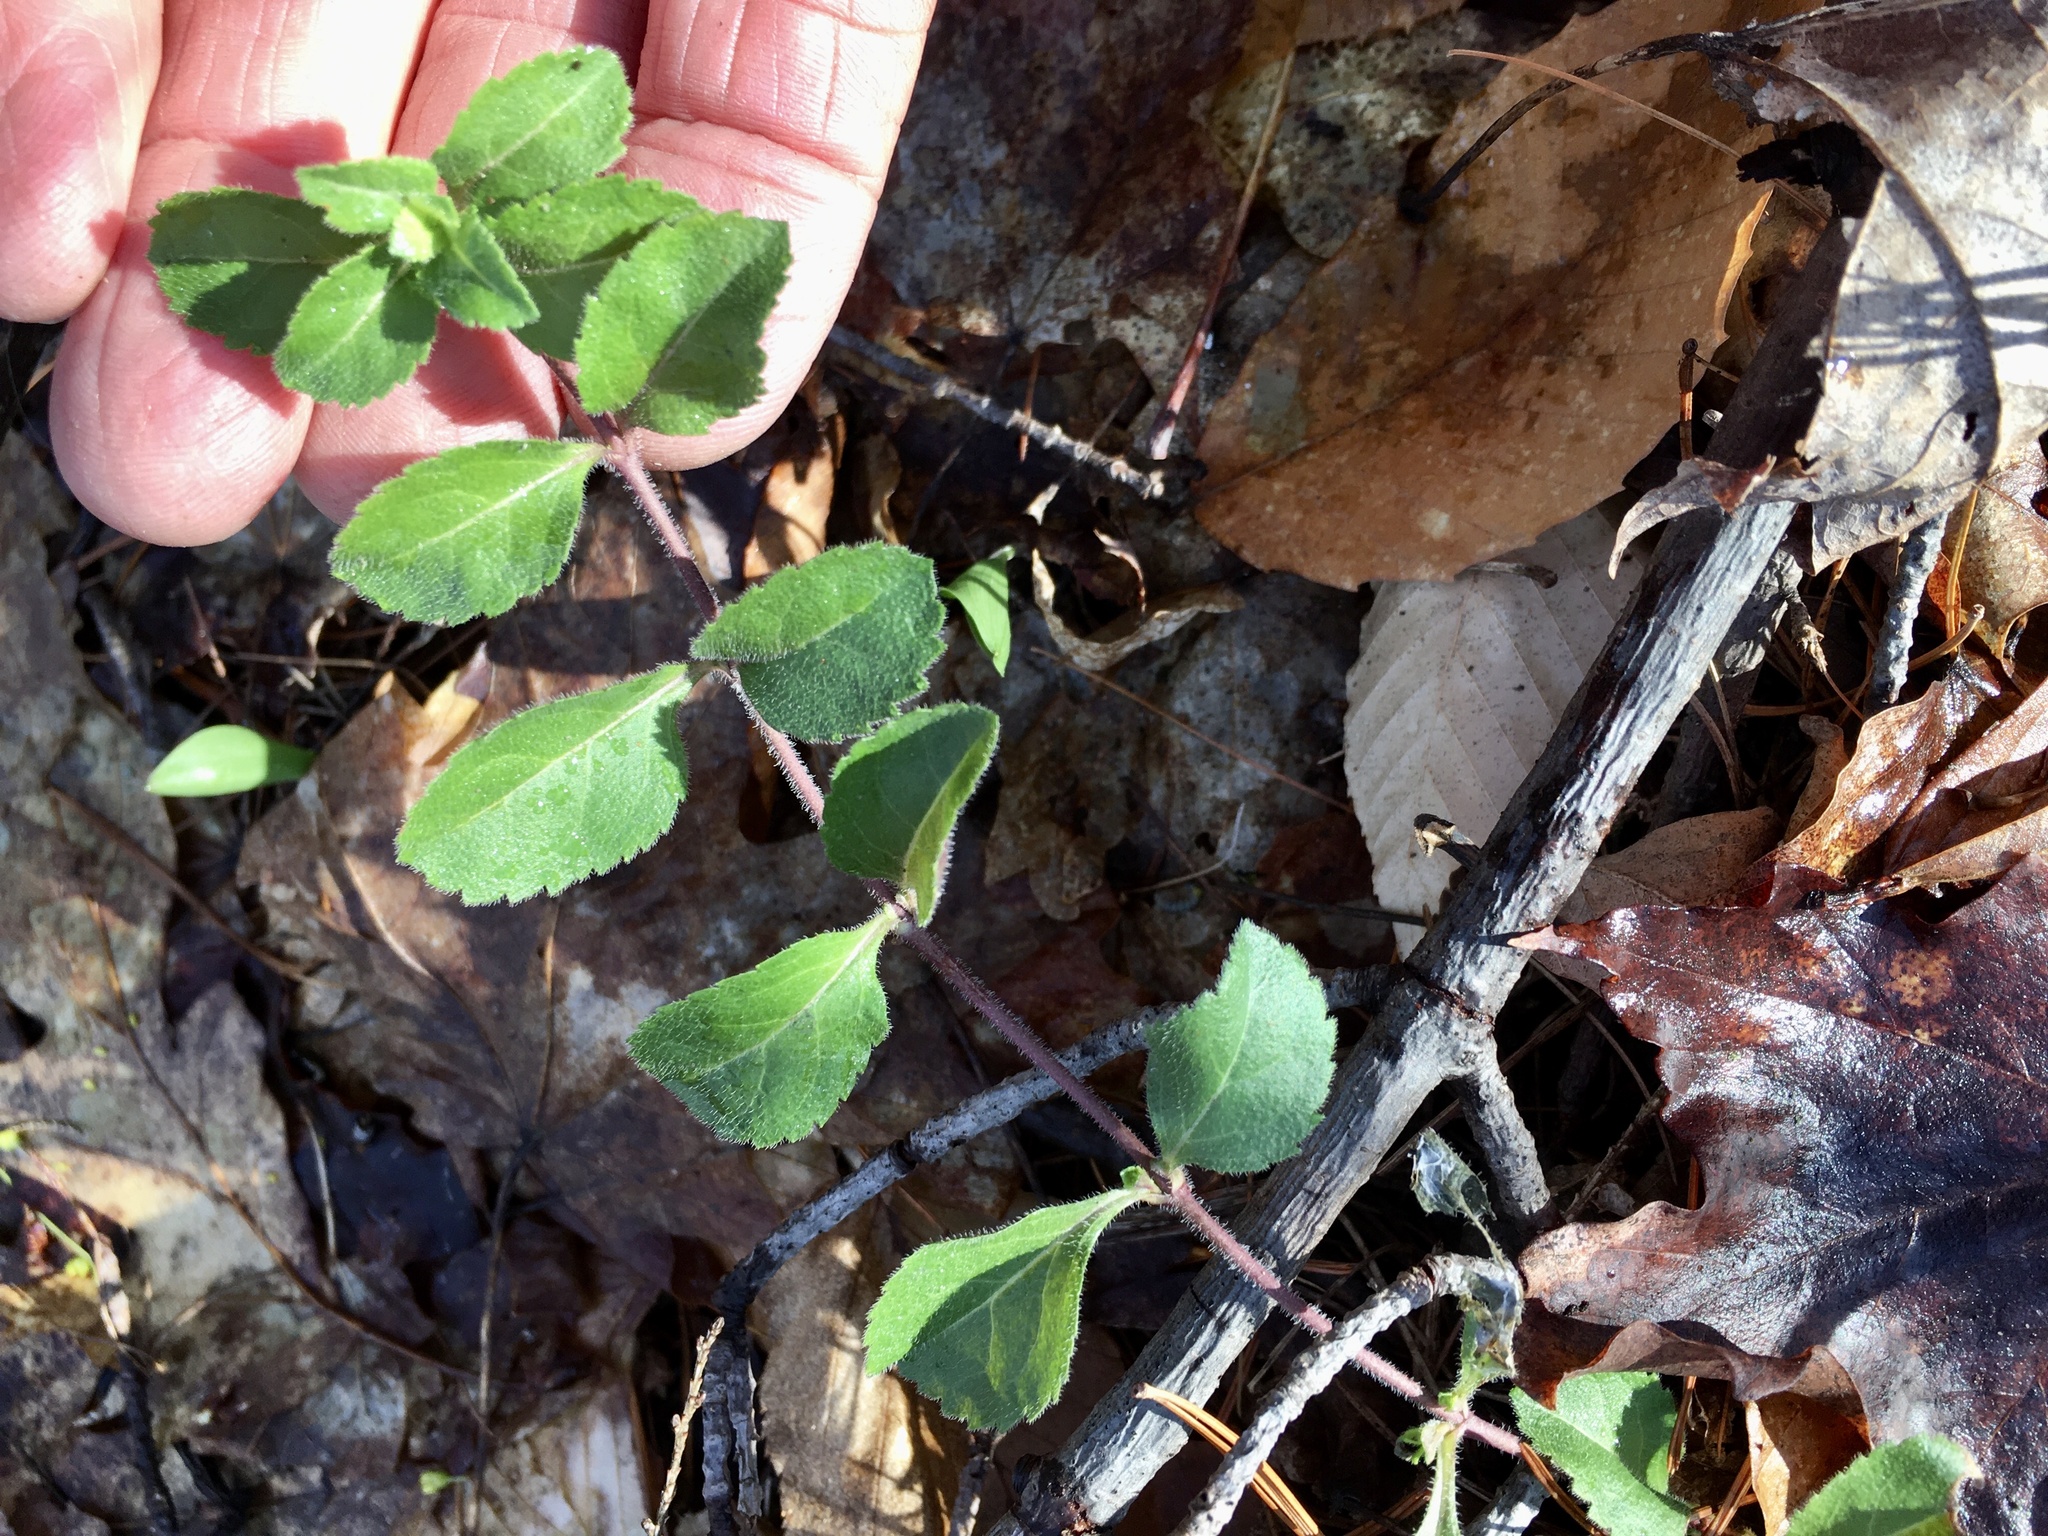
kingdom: Plantae
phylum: Tracheophyta
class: Magnoliopsida
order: Lamiales
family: Plantaginaceae
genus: Veronica
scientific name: Veronica officinalis
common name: Common speedwell
